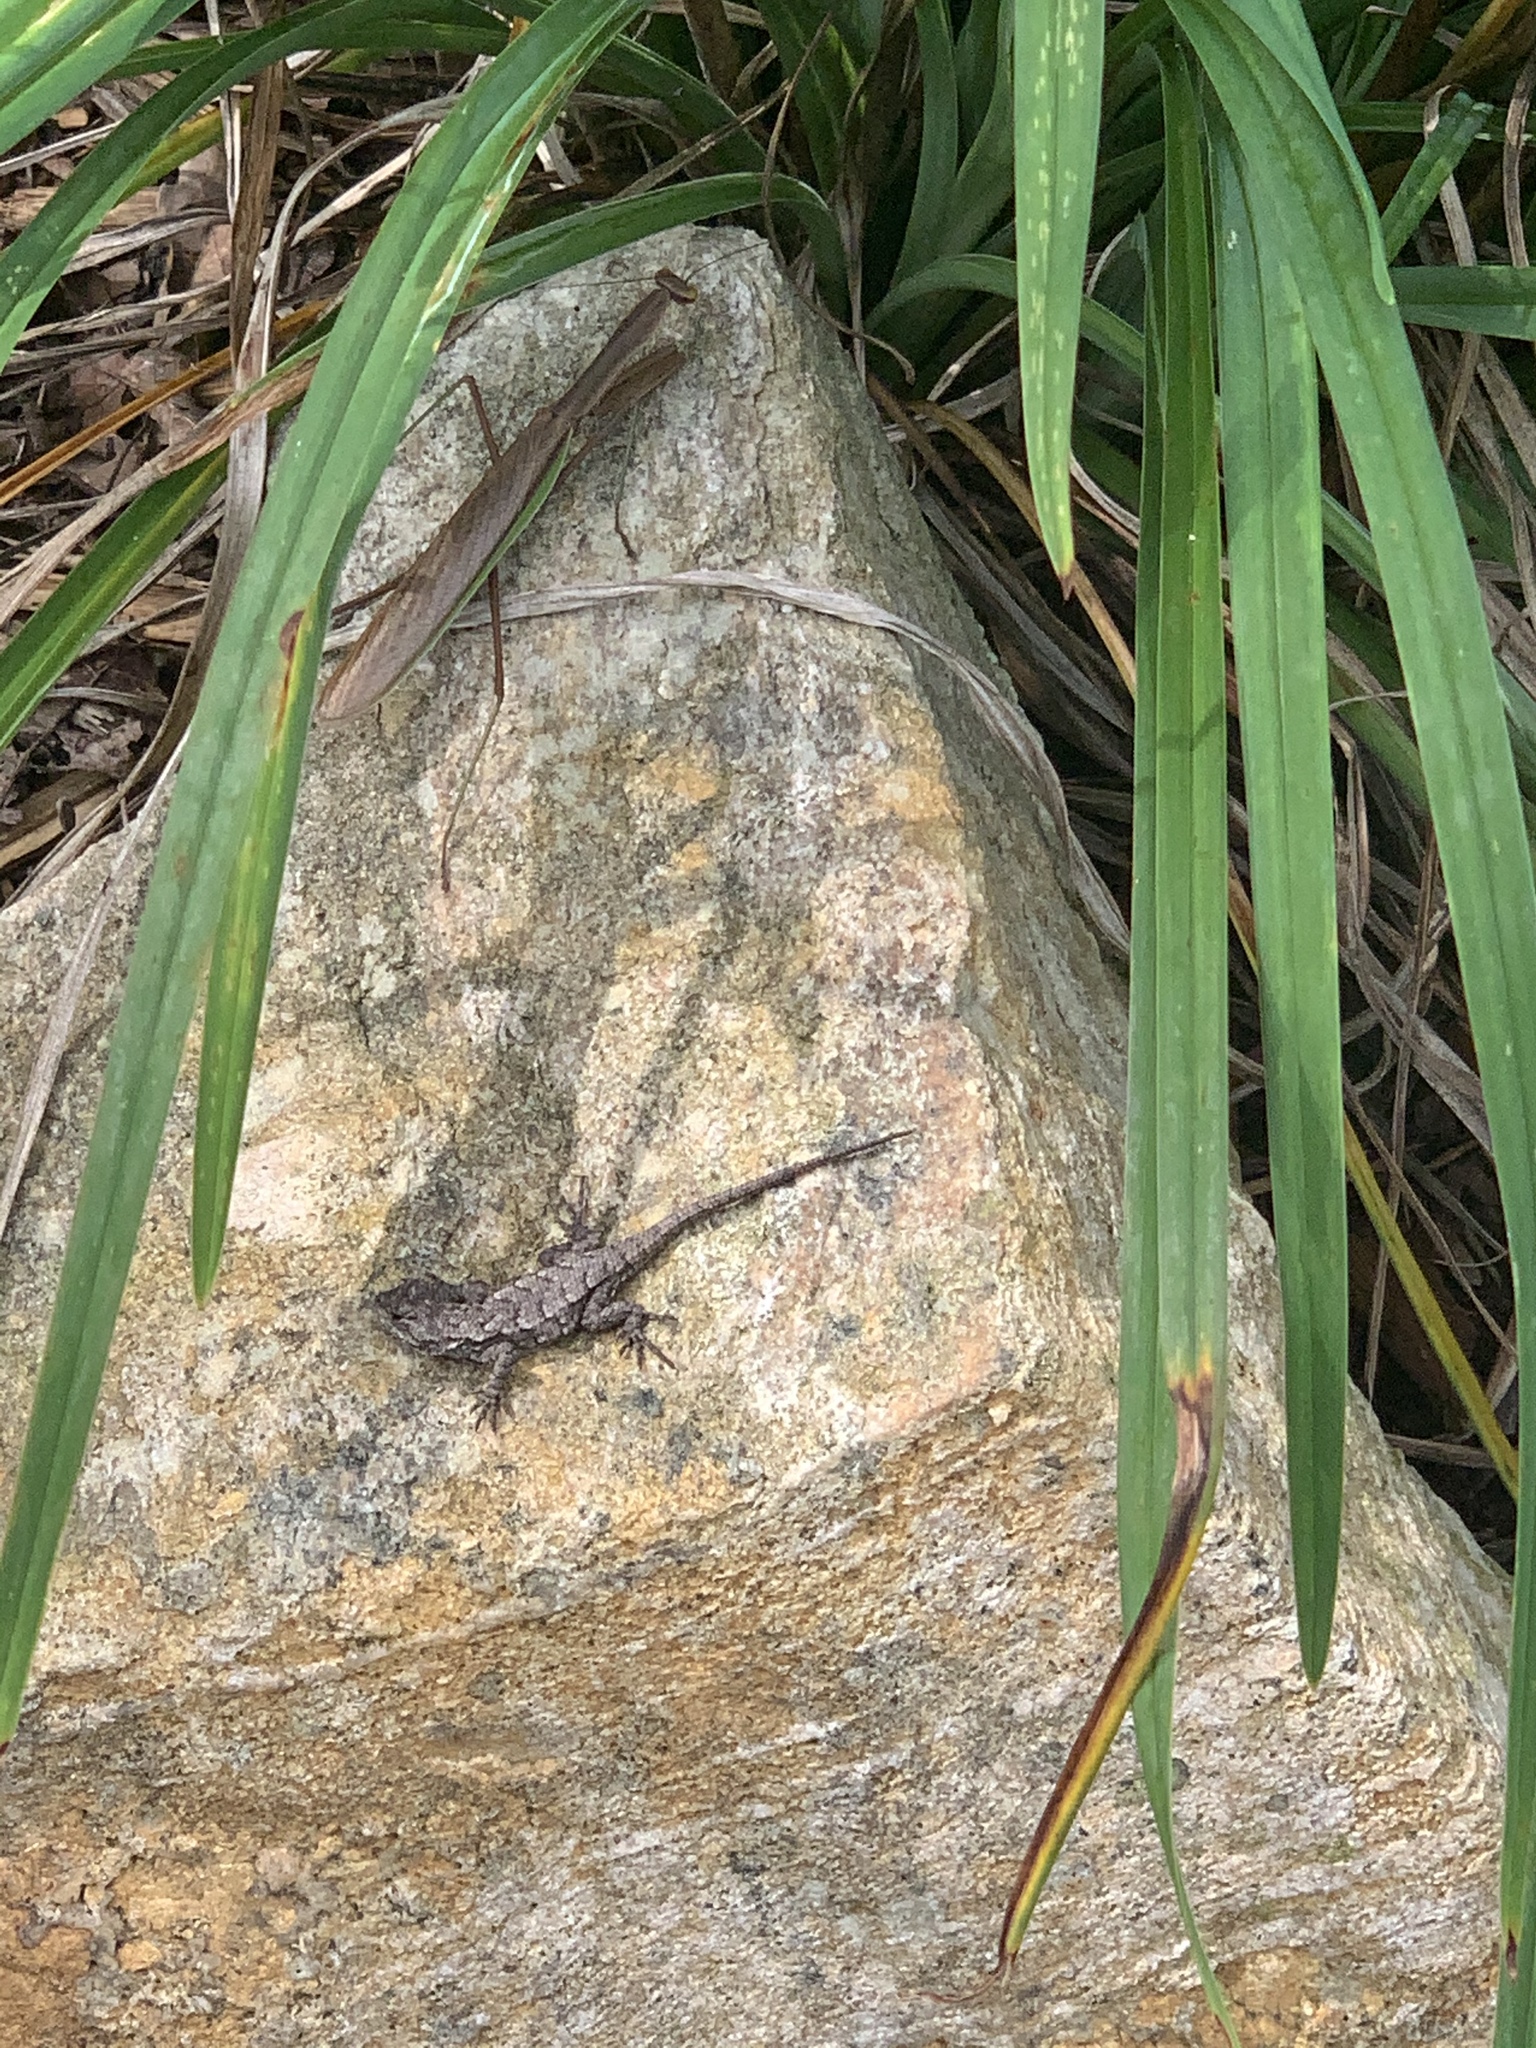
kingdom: Animalia
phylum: Chordata
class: Squamata
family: Phrynosomatidae
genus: Sceloporus
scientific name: Sceloporus undulatus
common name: Eastern fence lizard
